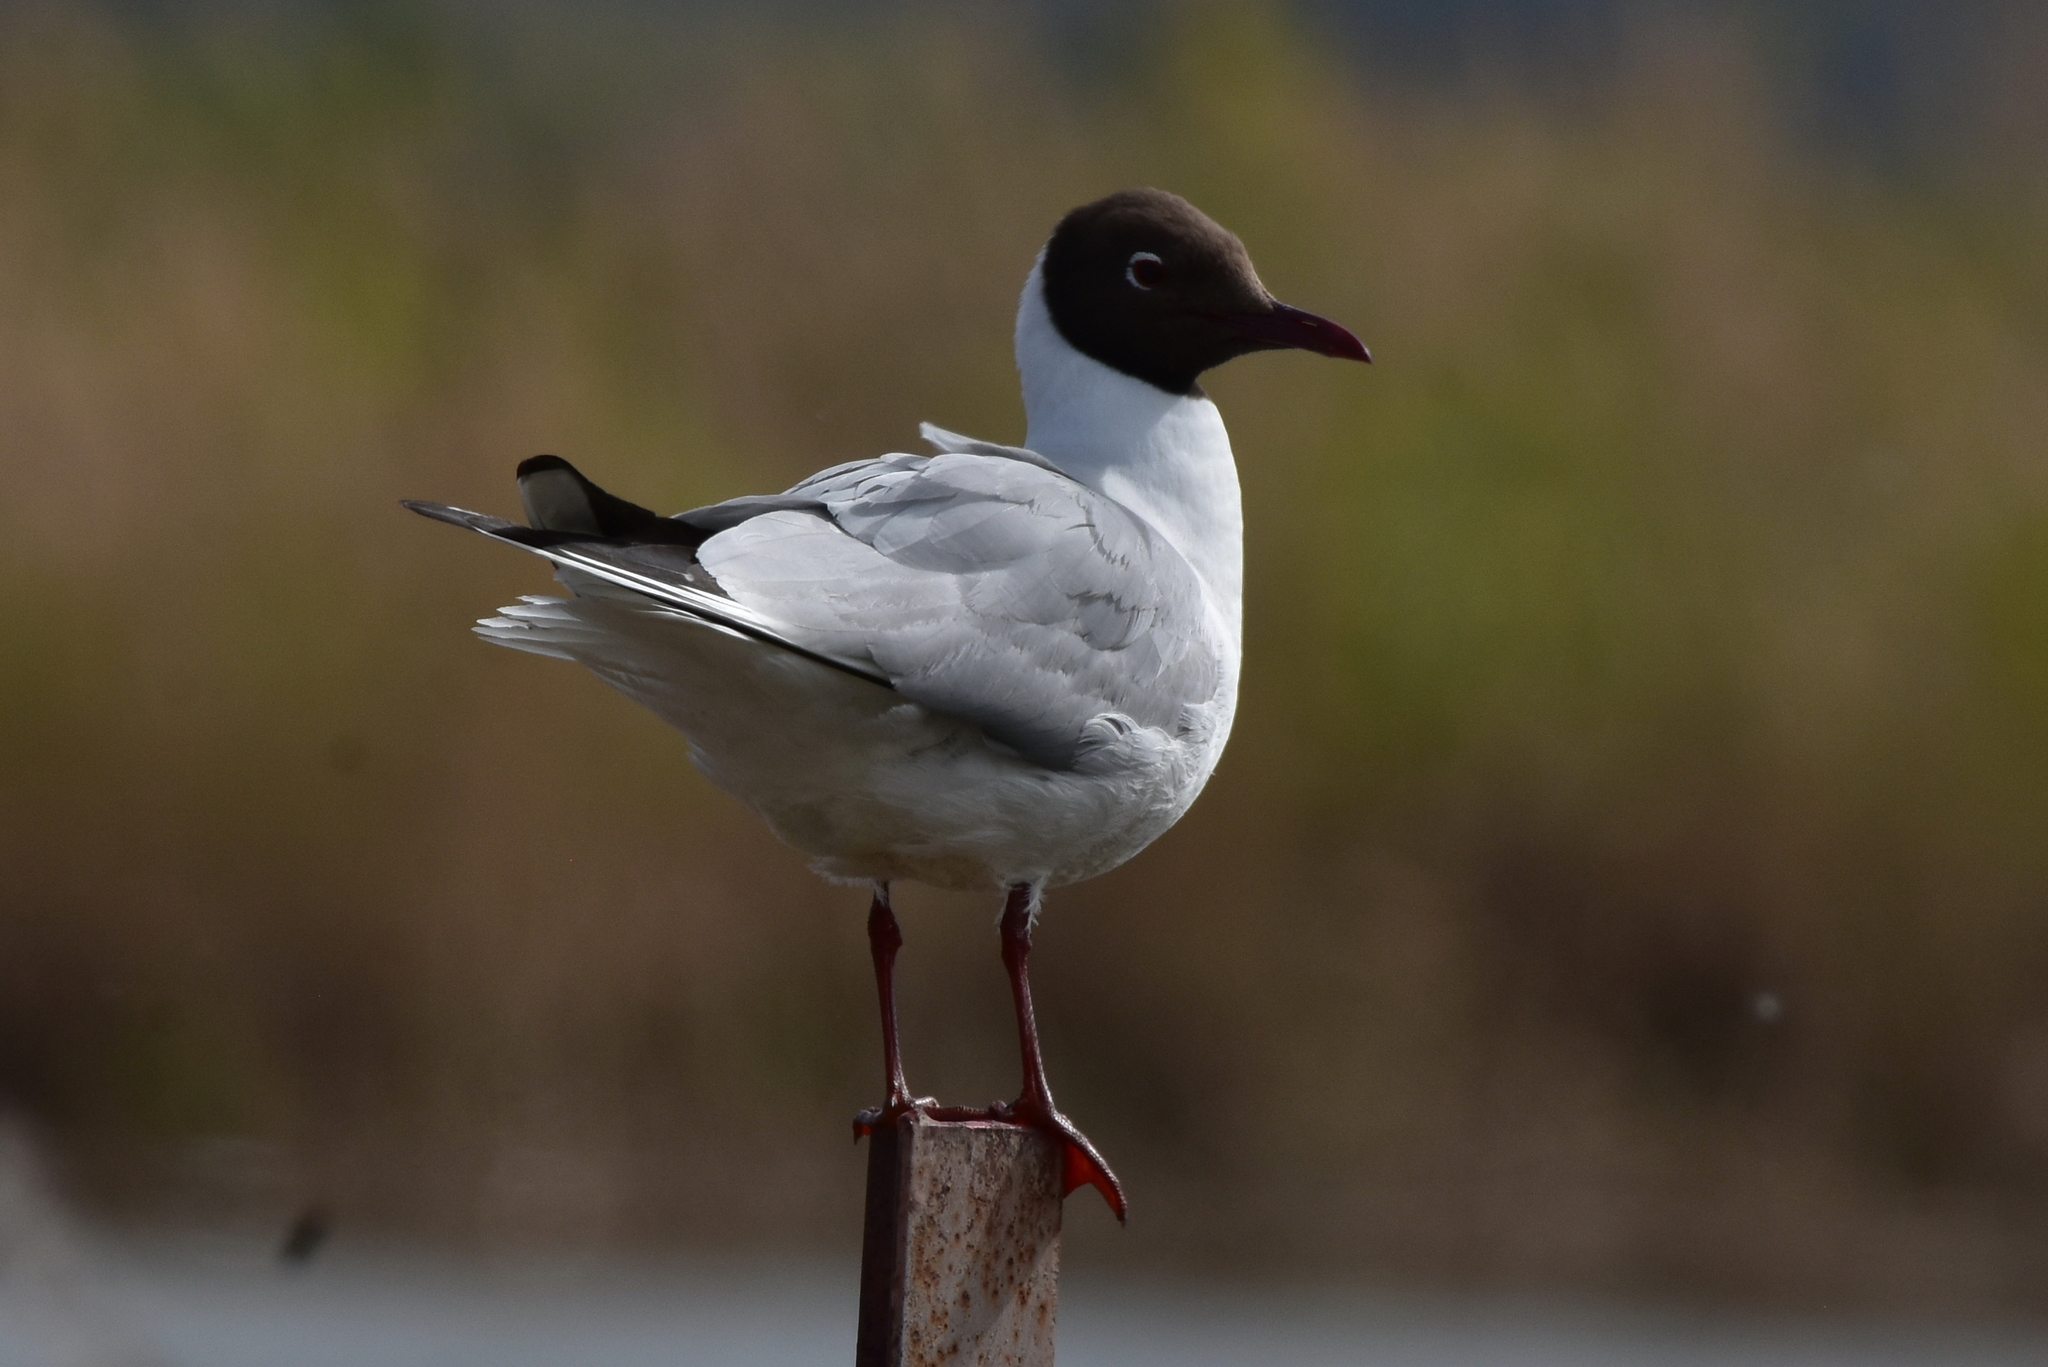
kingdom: Animalia
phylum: Chordata
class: Aves
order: Charadriiformes
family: Laridae
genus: Chroicocephalus
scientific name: Chroicocephalus ridibundus
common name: Black-headed gull
